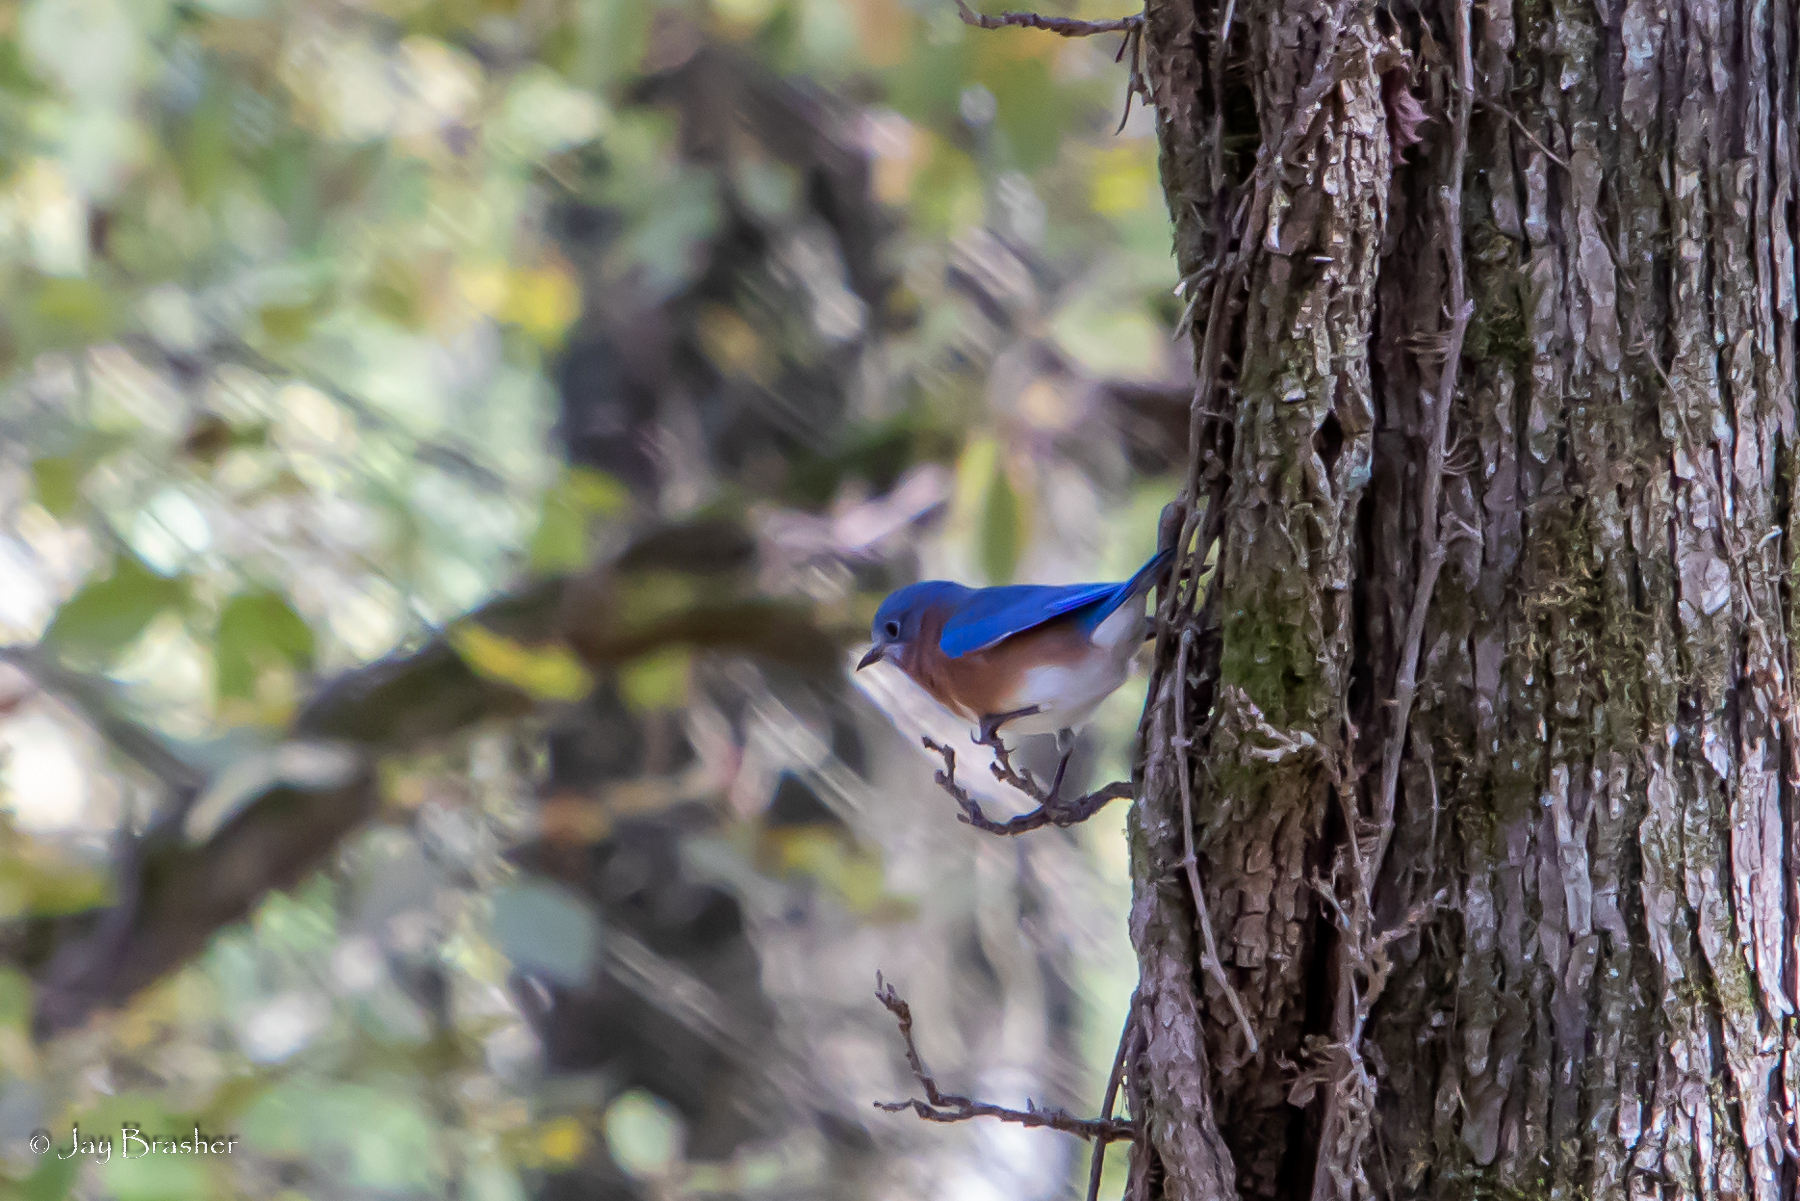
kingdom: Animalia
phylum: Chordata
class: Aves
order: Passeriformes
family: Turdidae
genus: Sialia
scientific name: Sialia sialis
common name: Eastern bluebird
